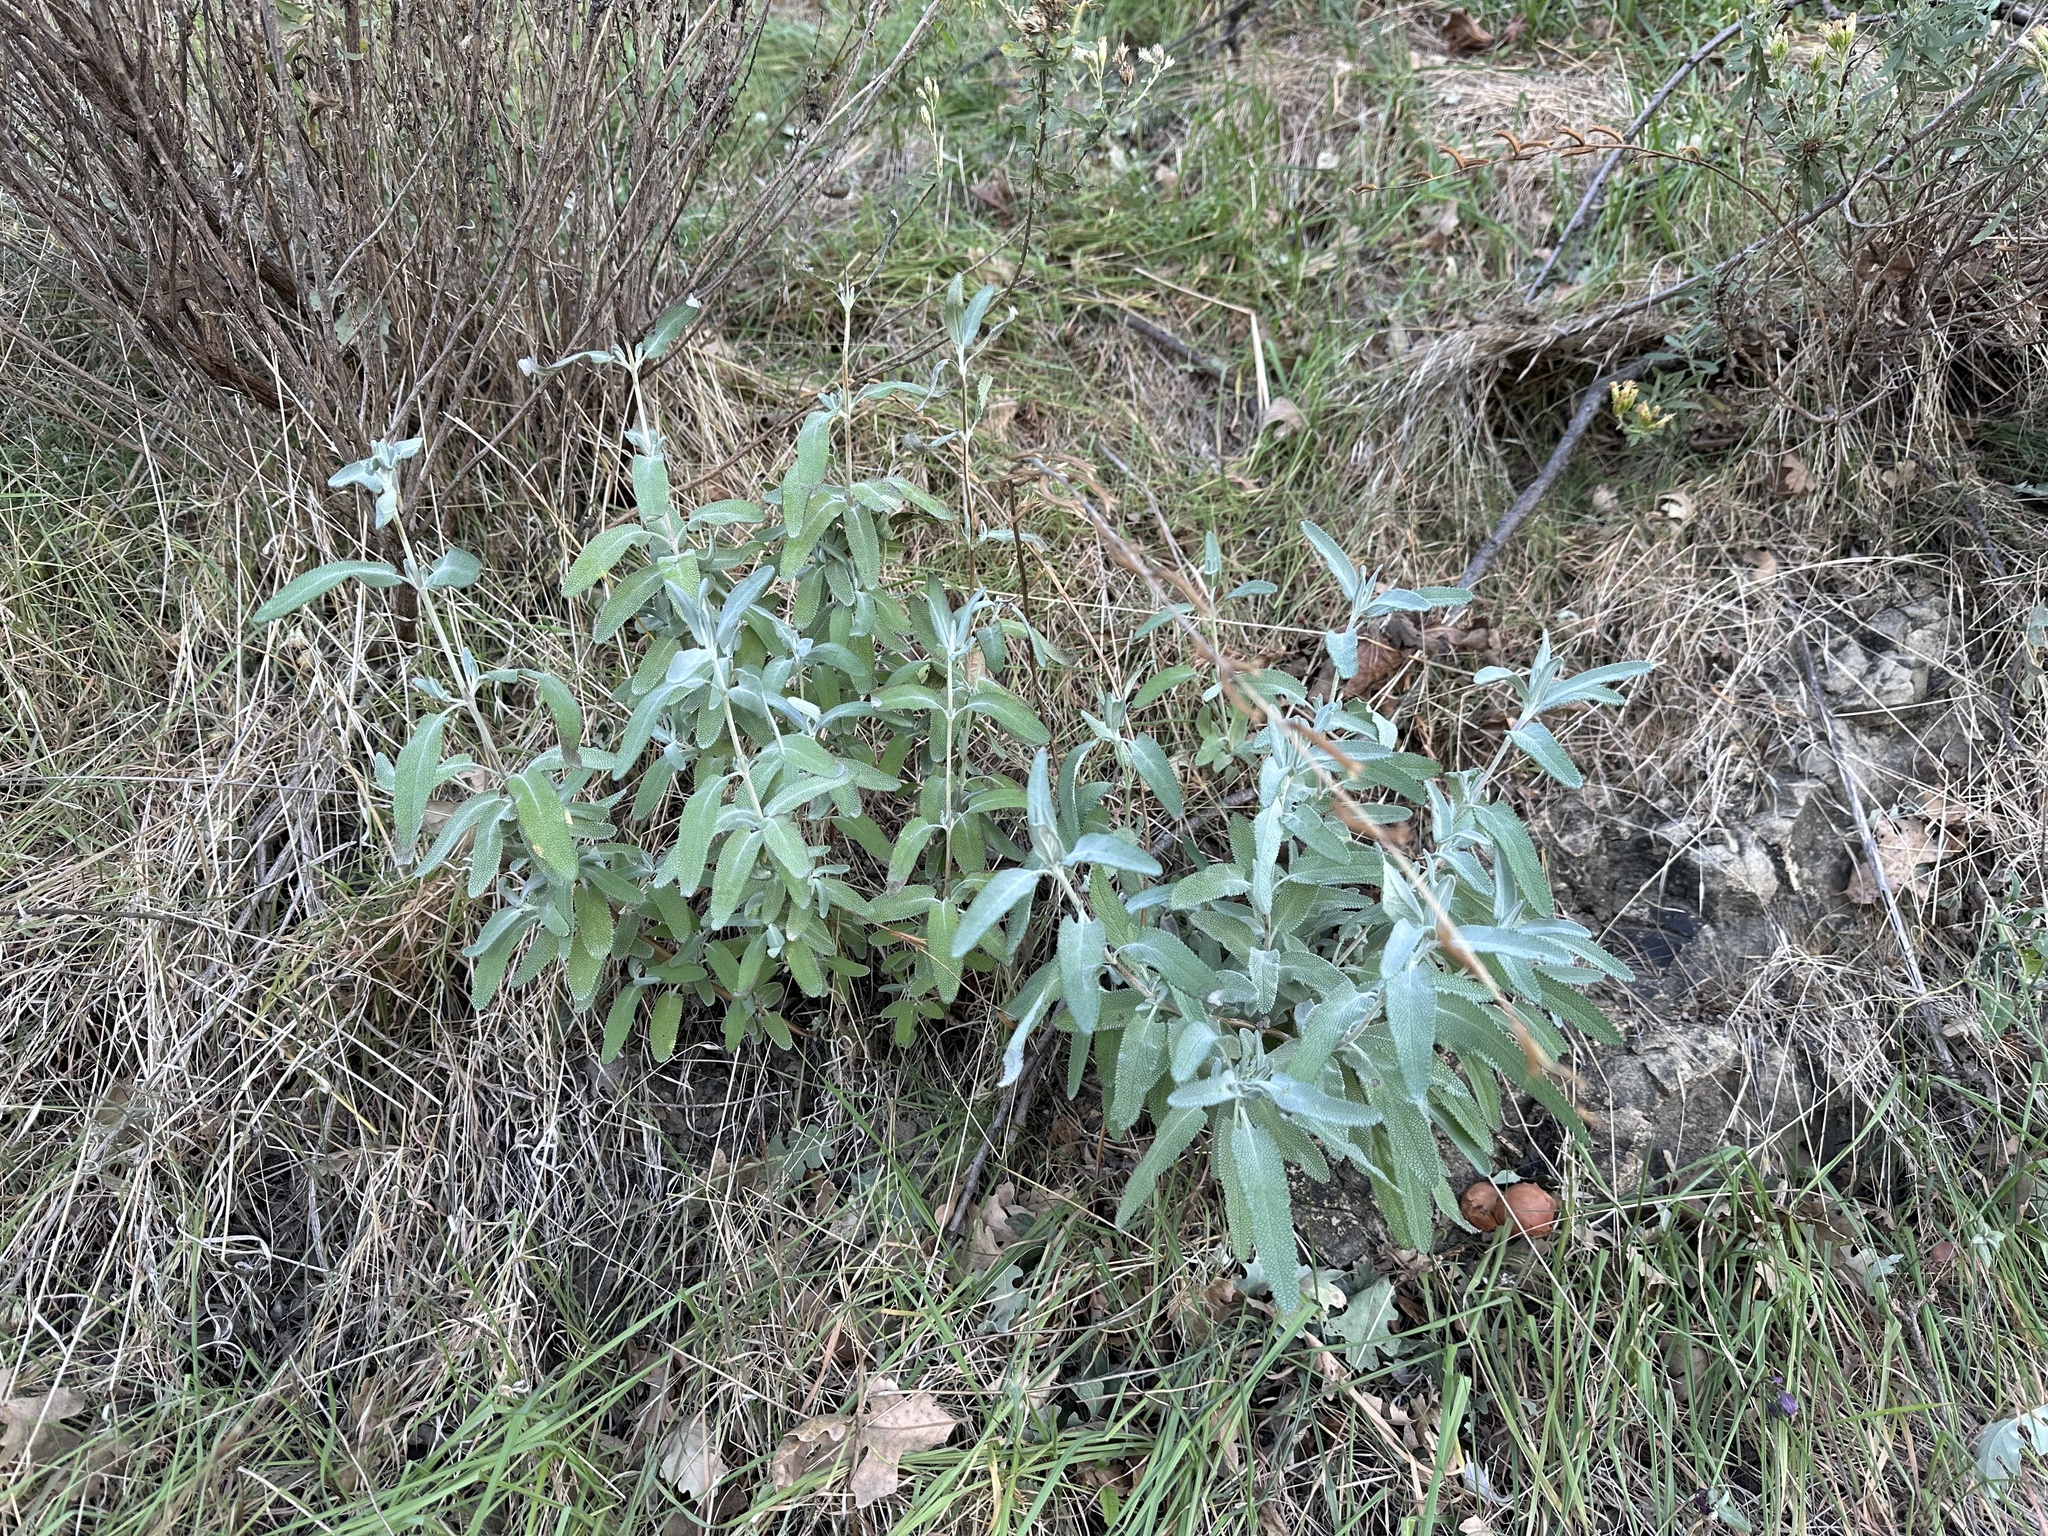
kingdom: Plantae
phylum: Tracheophyta
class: Magnoliopsida
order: Lamiales
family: Lamiaceae
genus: Salvia
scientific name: Salvia leucophylla
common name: Purple sage
